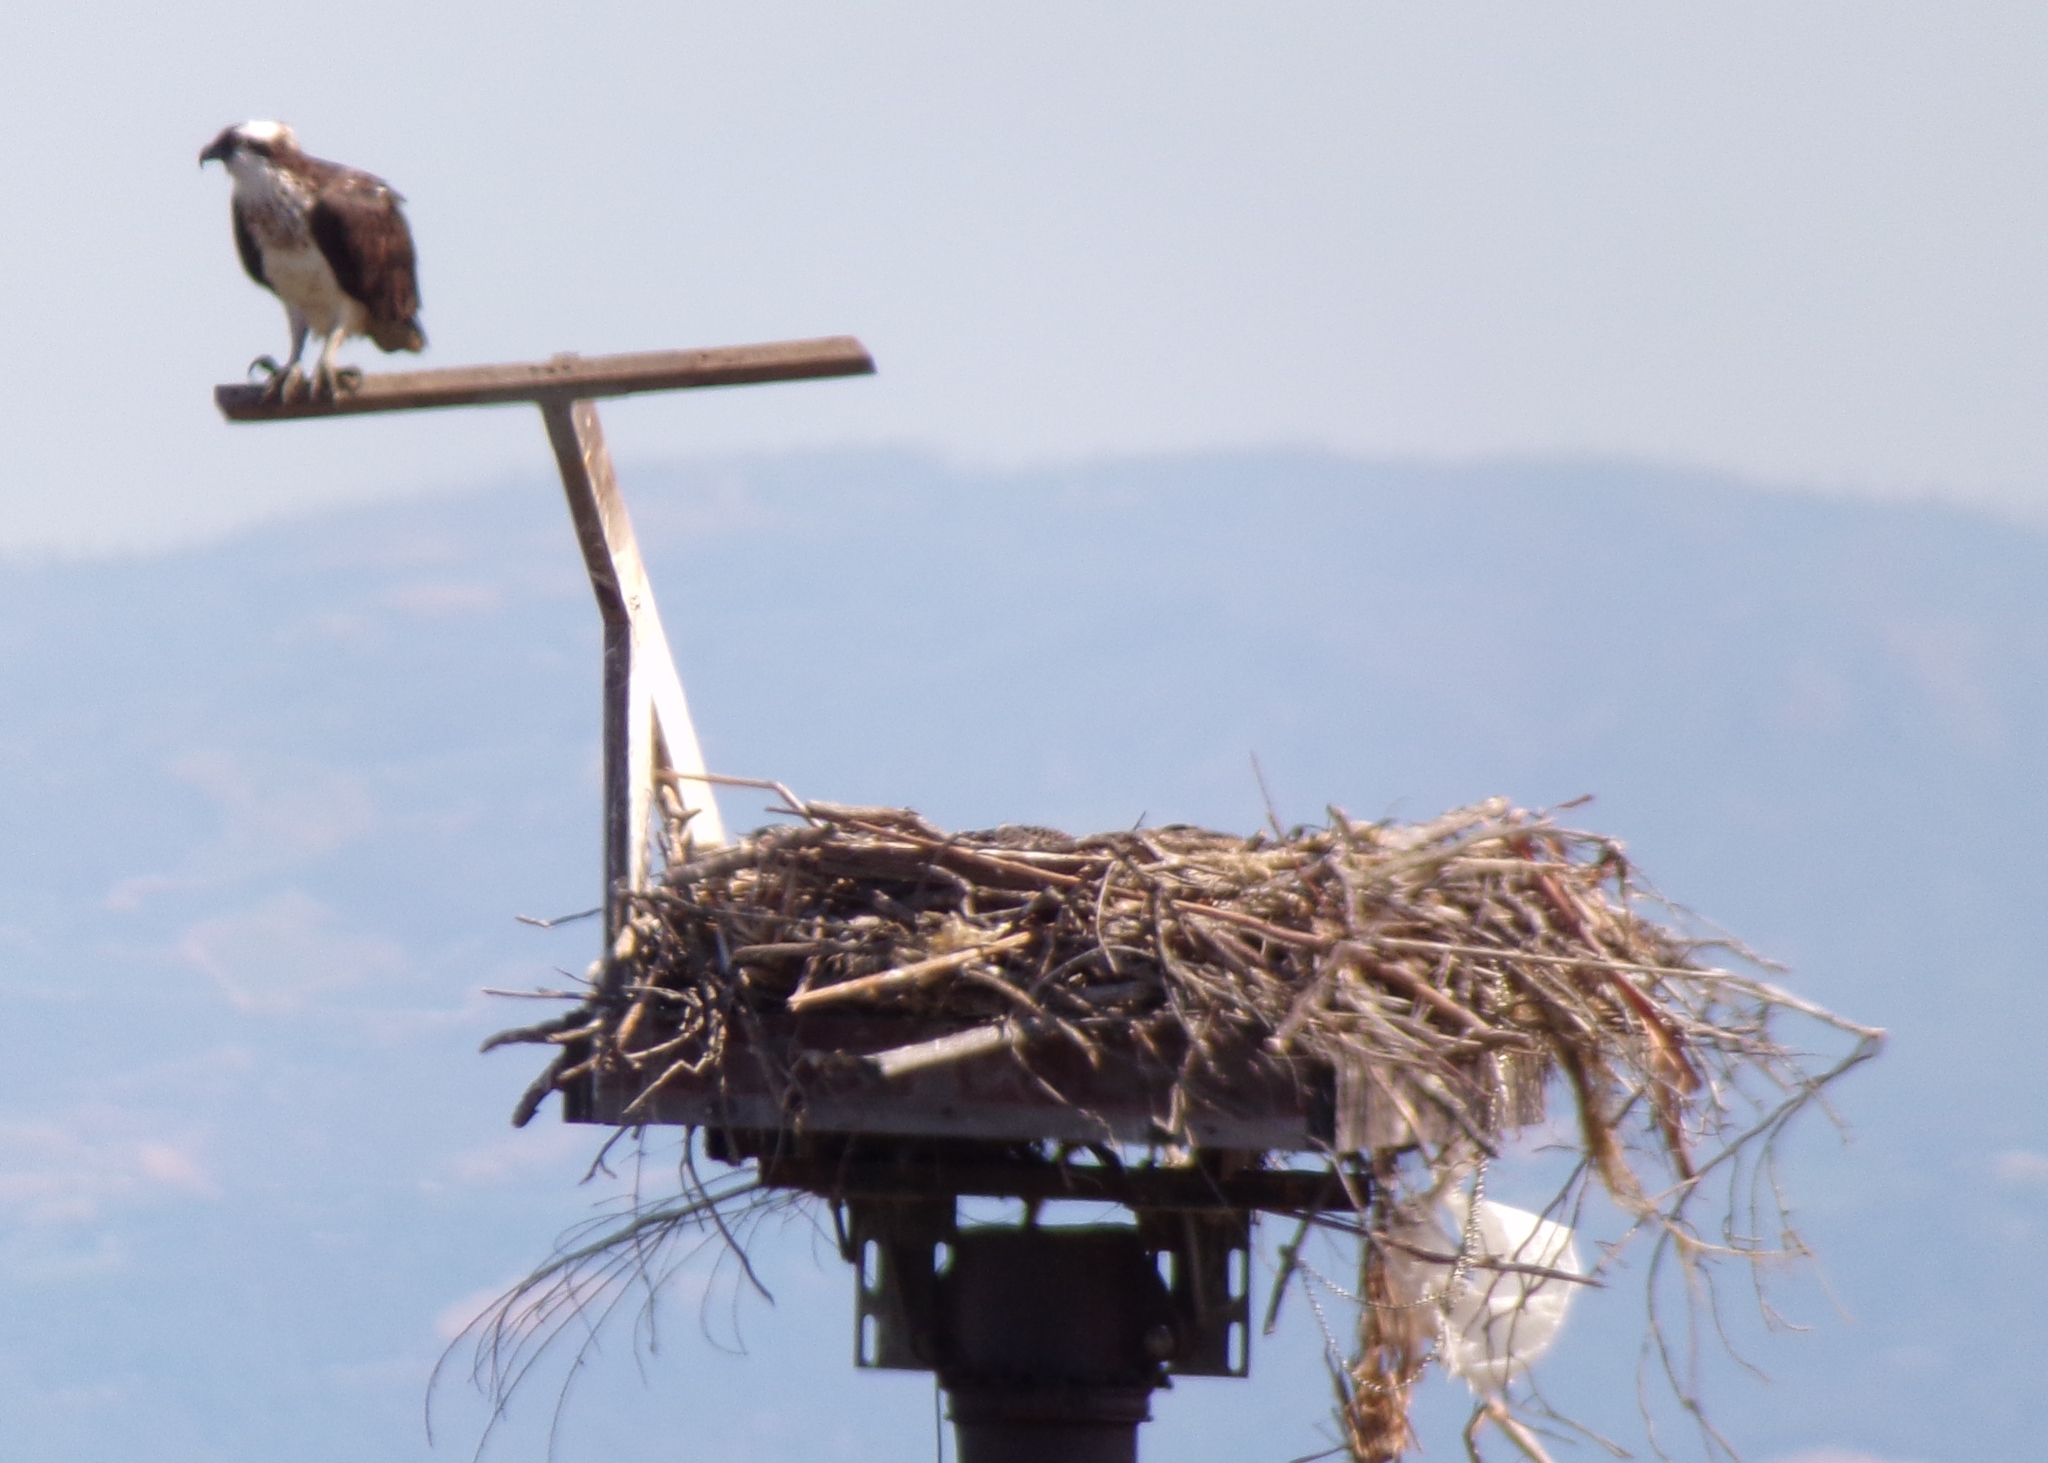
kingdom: Animalia
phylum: Chordata
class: Aves
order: Accipitriformes
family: Pandionidae
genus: Pandion
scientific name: Pandion haliaetus
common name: Osprey
